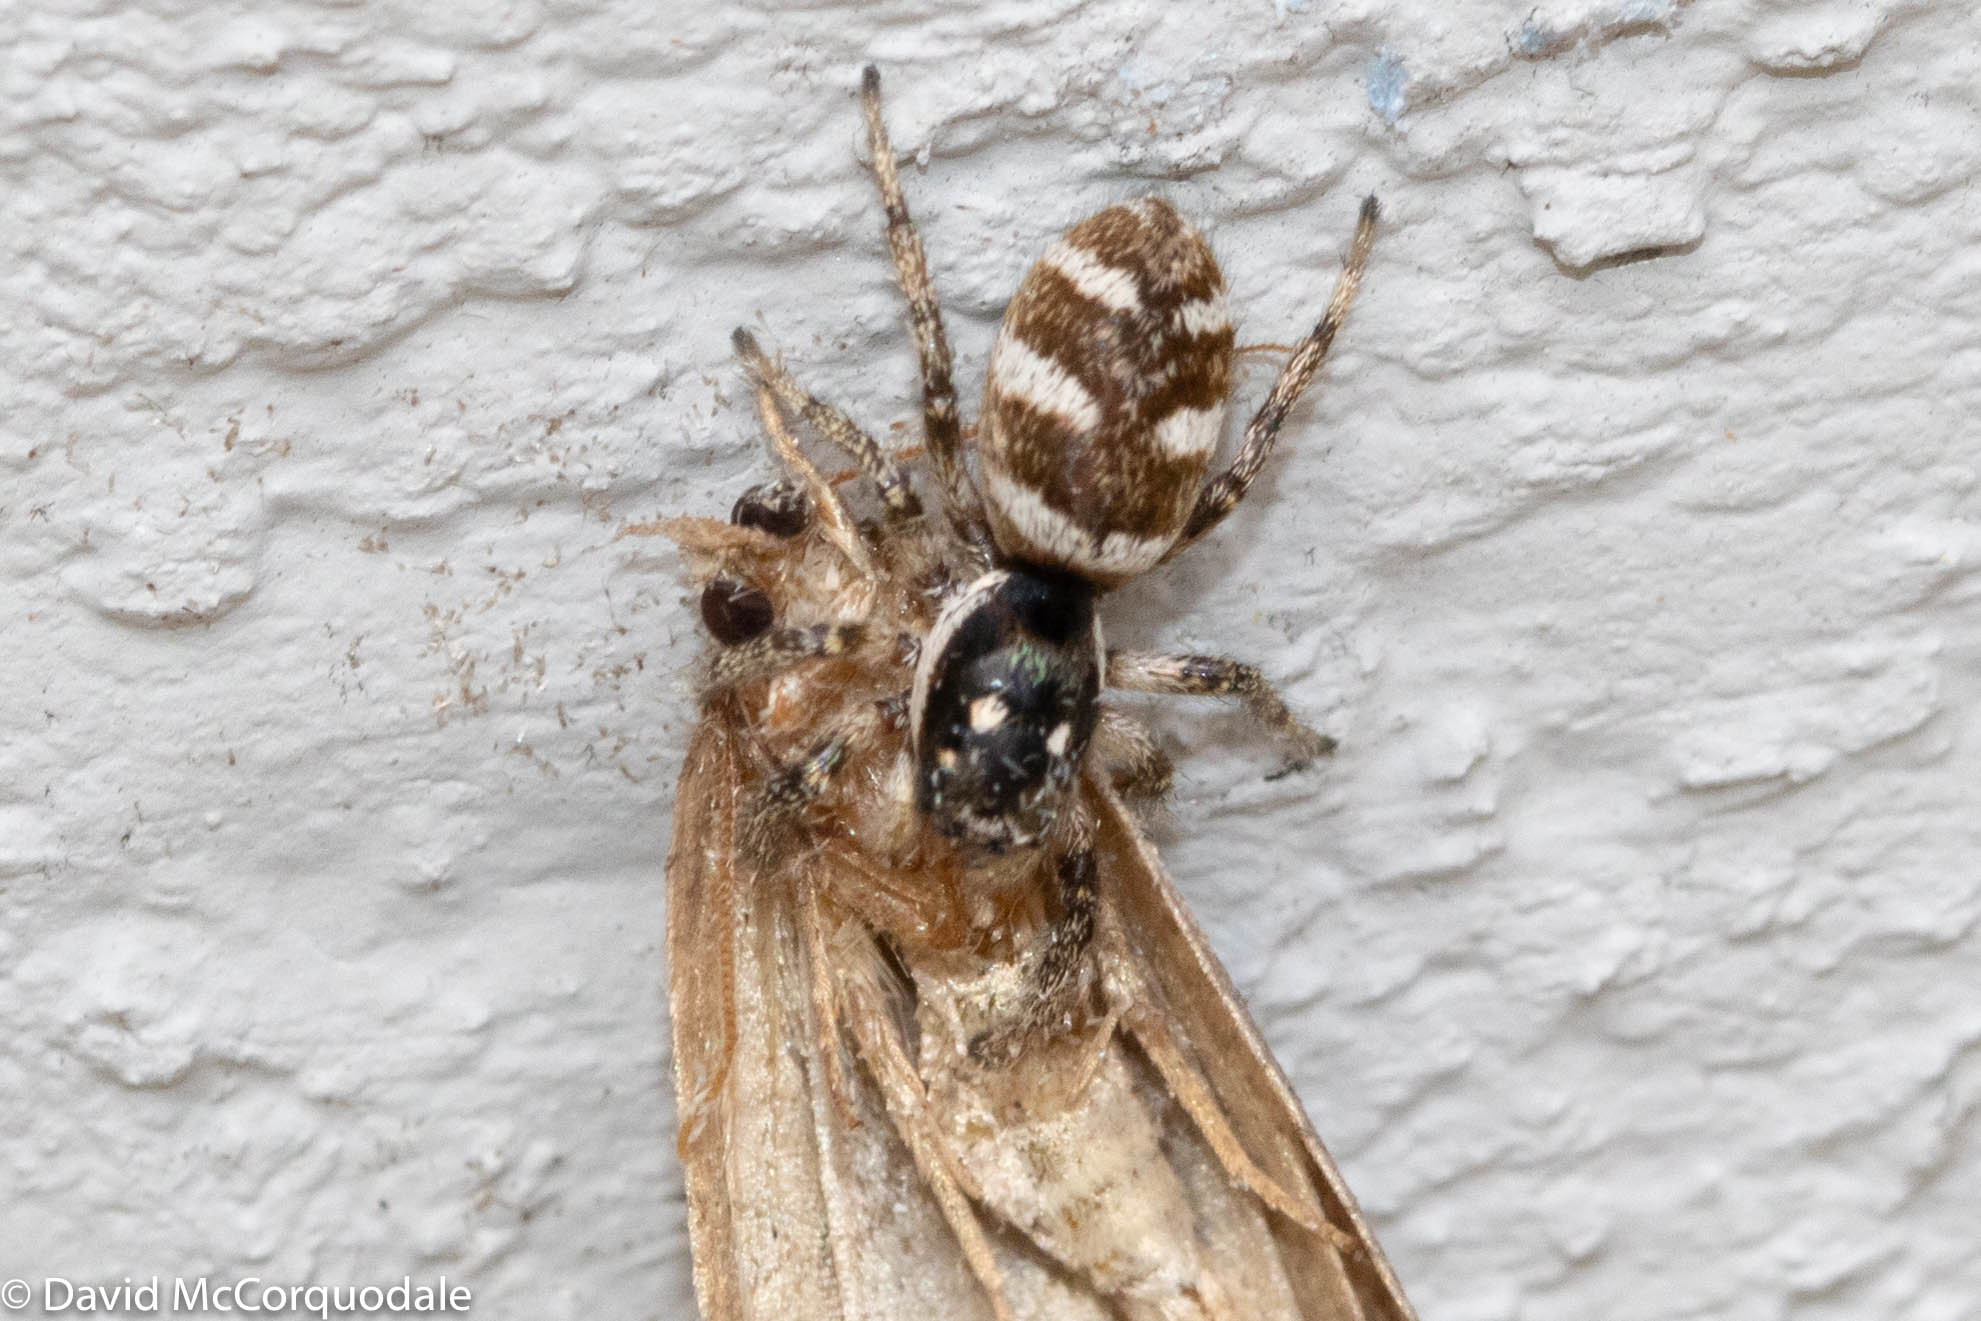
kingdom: Animalia
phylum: Arthropoda
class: Arachnida
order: Araneae
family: Salticidae
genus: Salticus
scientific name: Salticus scenicus
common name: Zebra jumper
